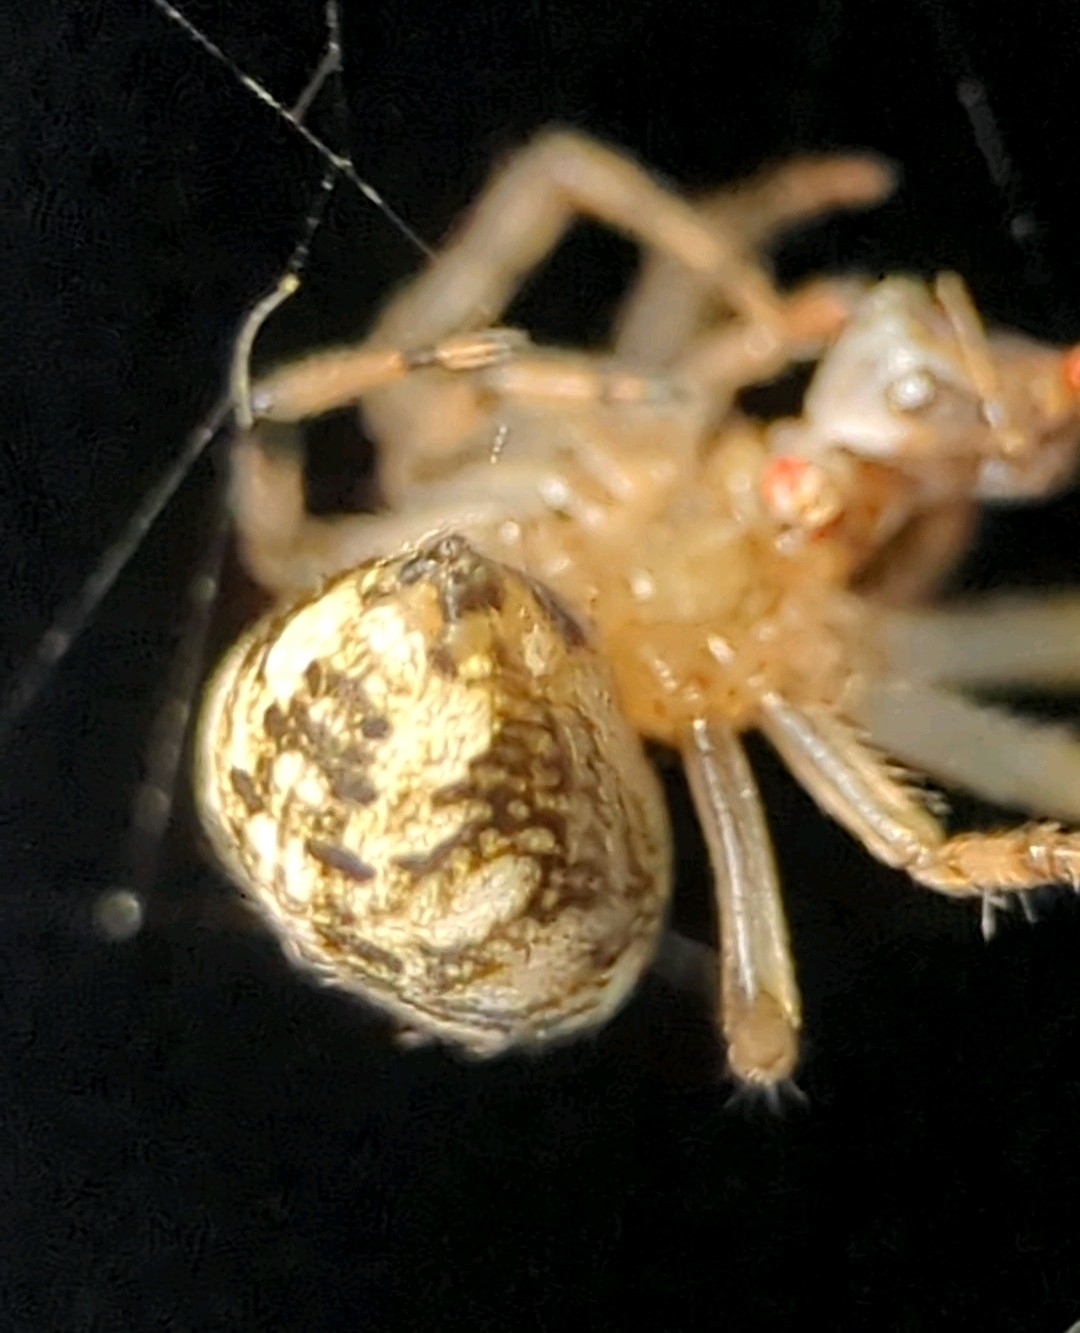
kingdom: Animalia
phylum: Arthropoda
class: Arachnida
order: Araneae
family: Araneidae
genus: Araneus
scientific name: Araneus pegnia
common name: Orb weavers
